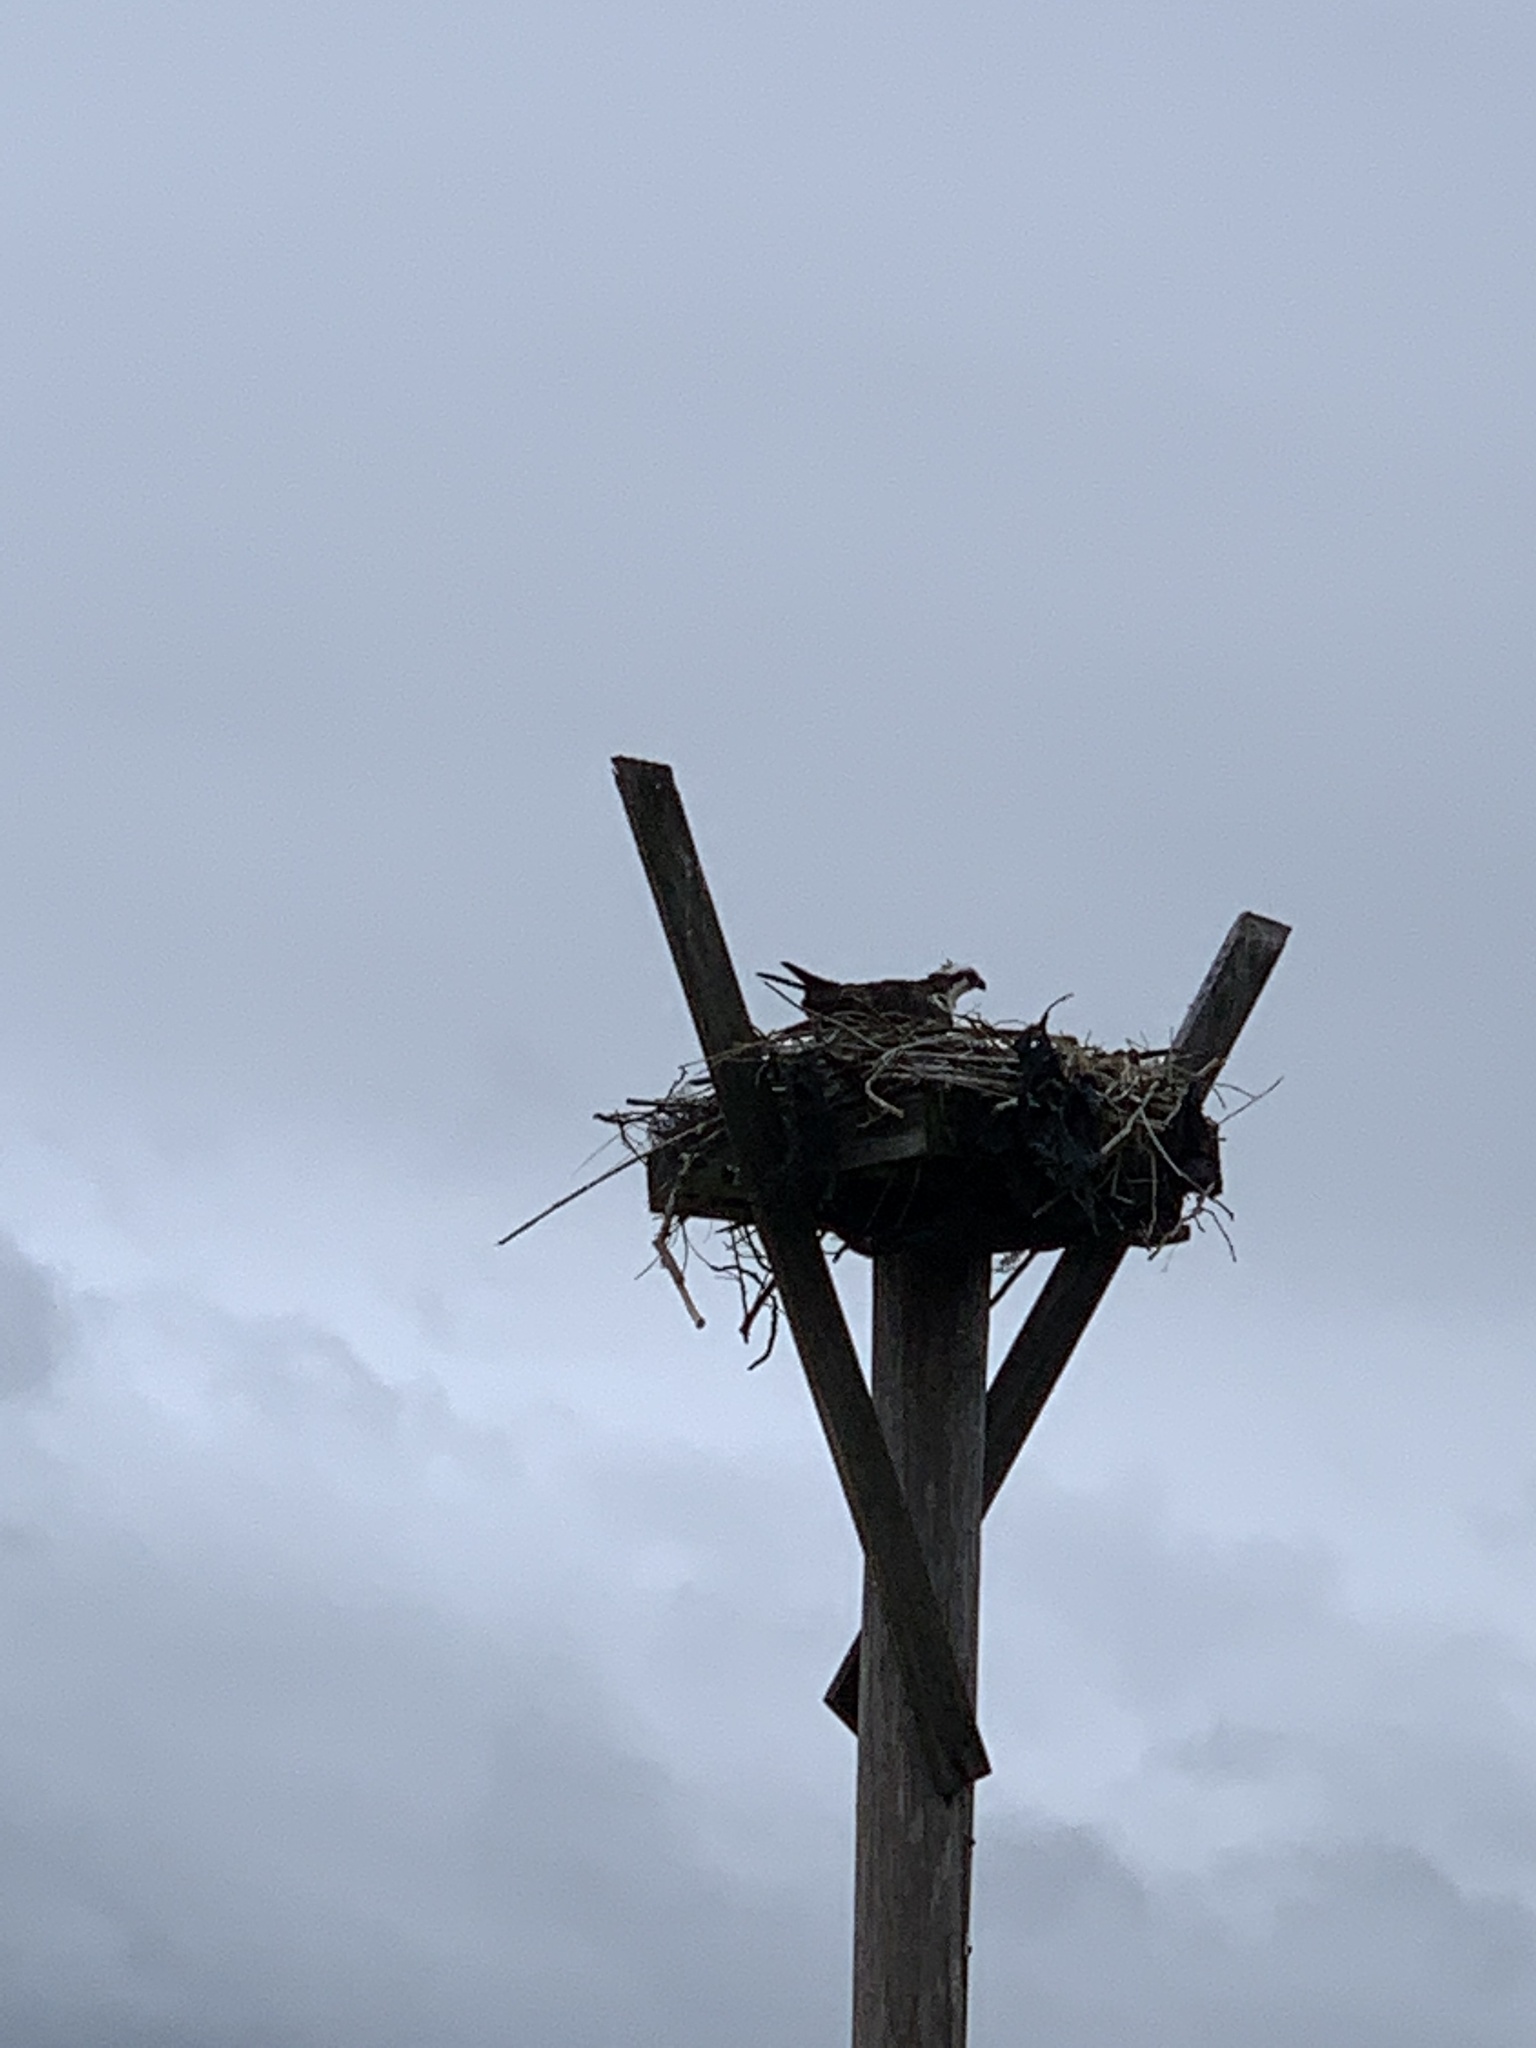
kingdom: Animalia
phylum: Chordata
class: Aves
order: Accipitriformes
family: Pandionidae
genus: Pandion
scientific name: Pandion haliaetus
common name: Osprey
